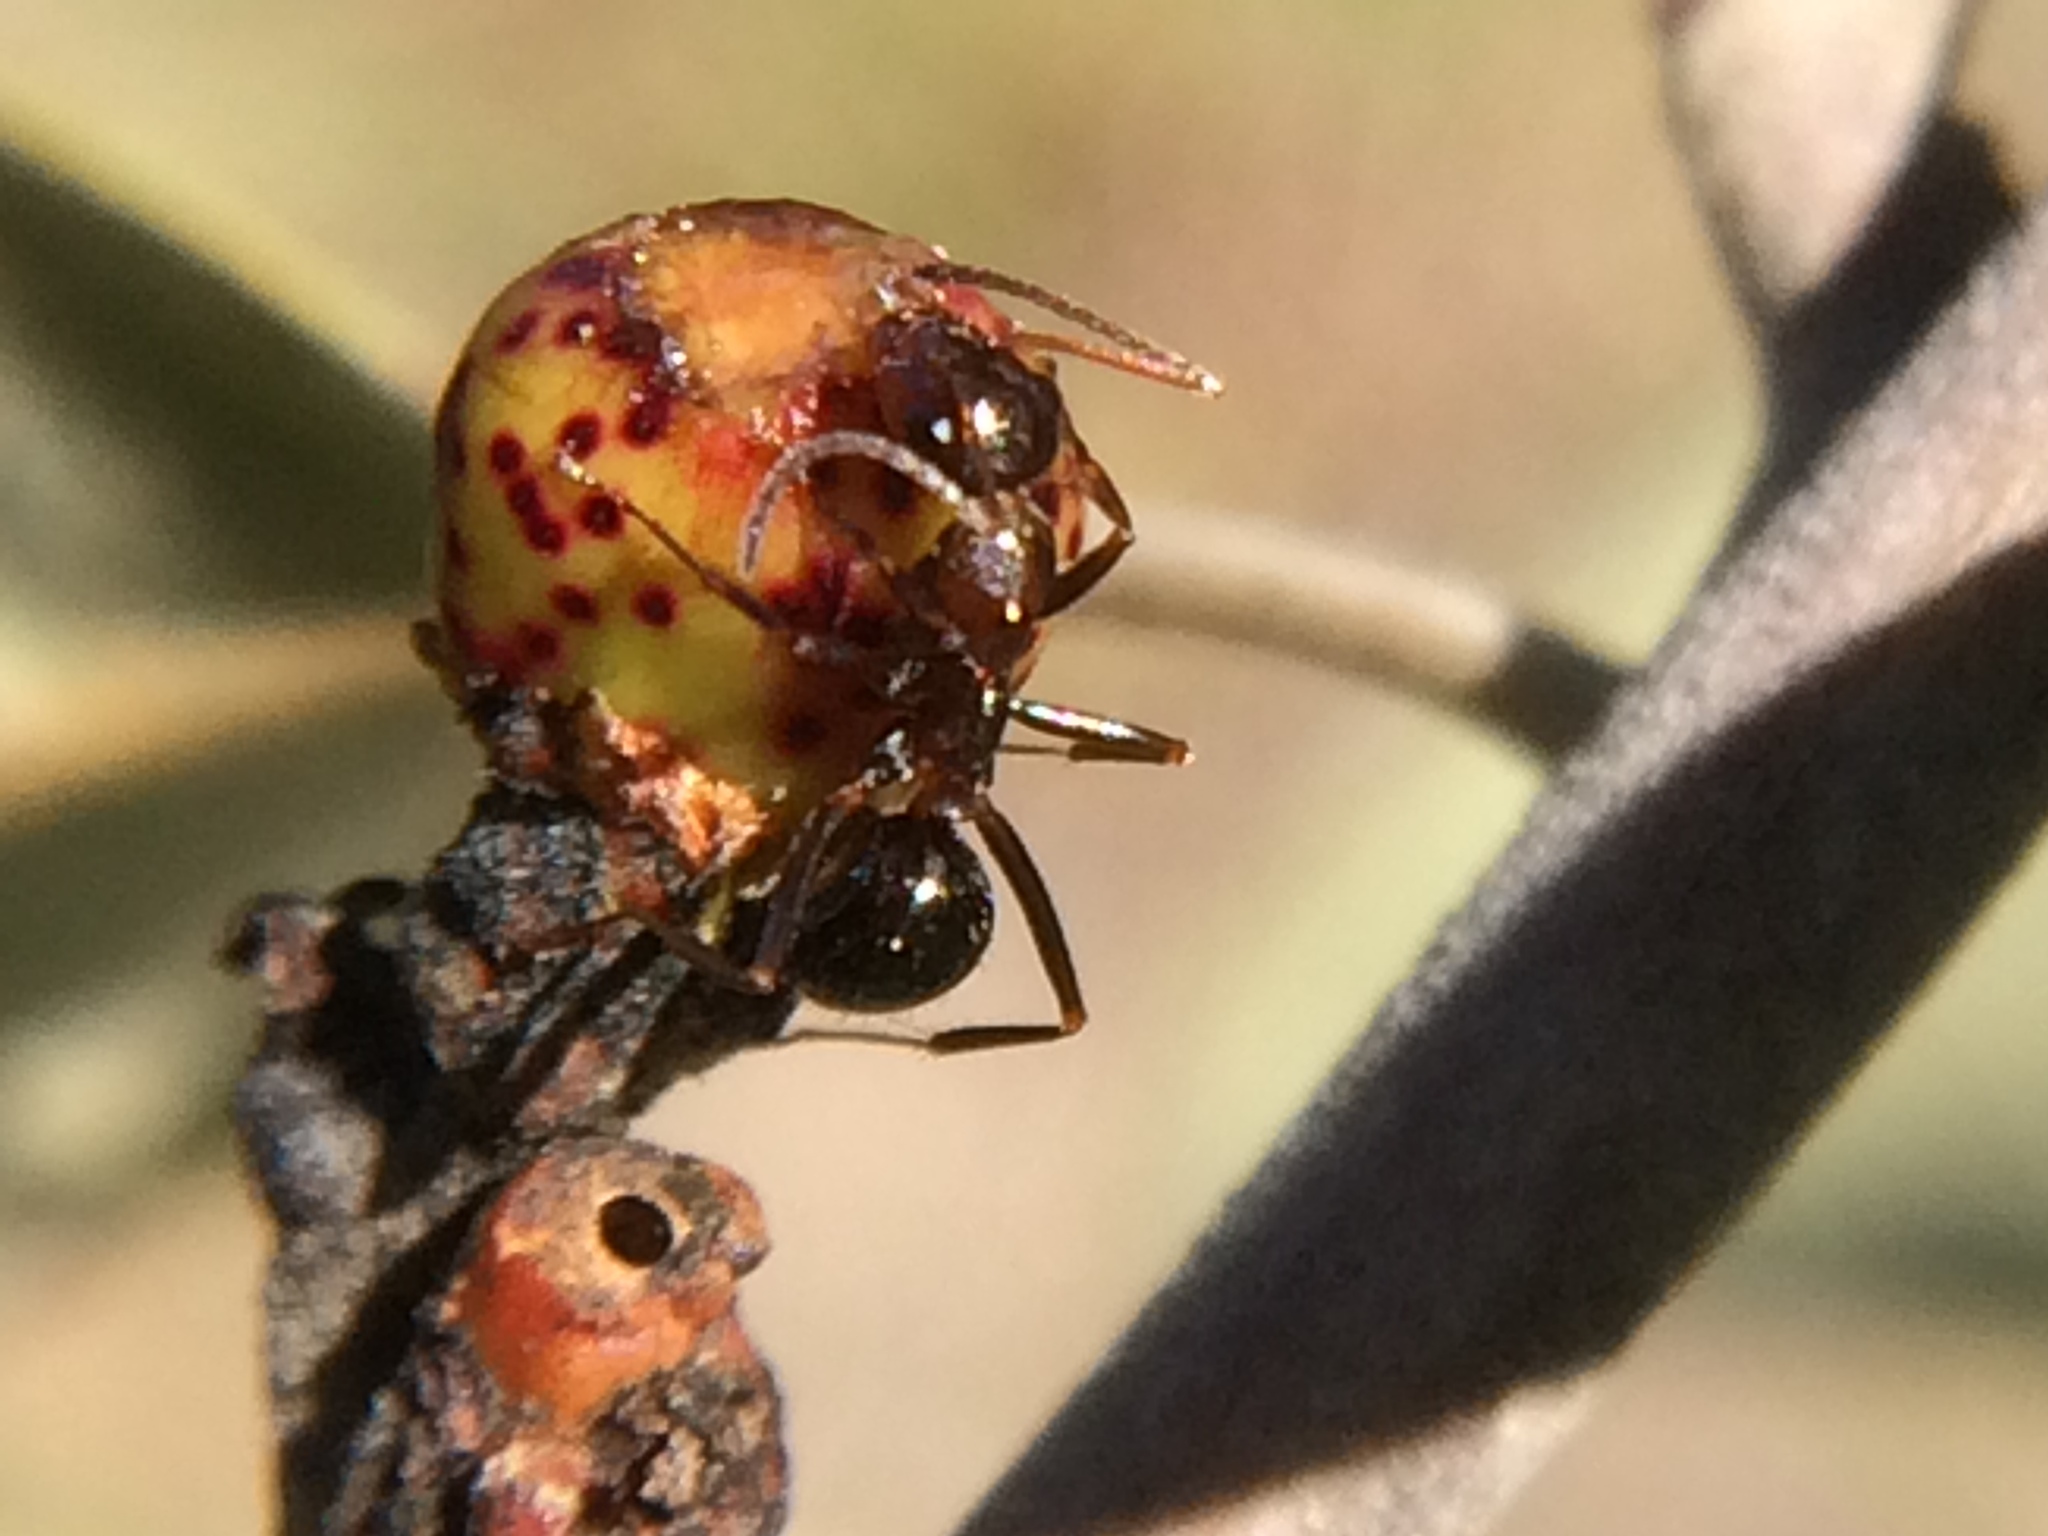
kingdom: Animalia
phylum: Arthropoda
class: Insecta
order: Hymenoptera
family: Cynipidae
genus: Callirhytis
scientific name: Callirhytis
